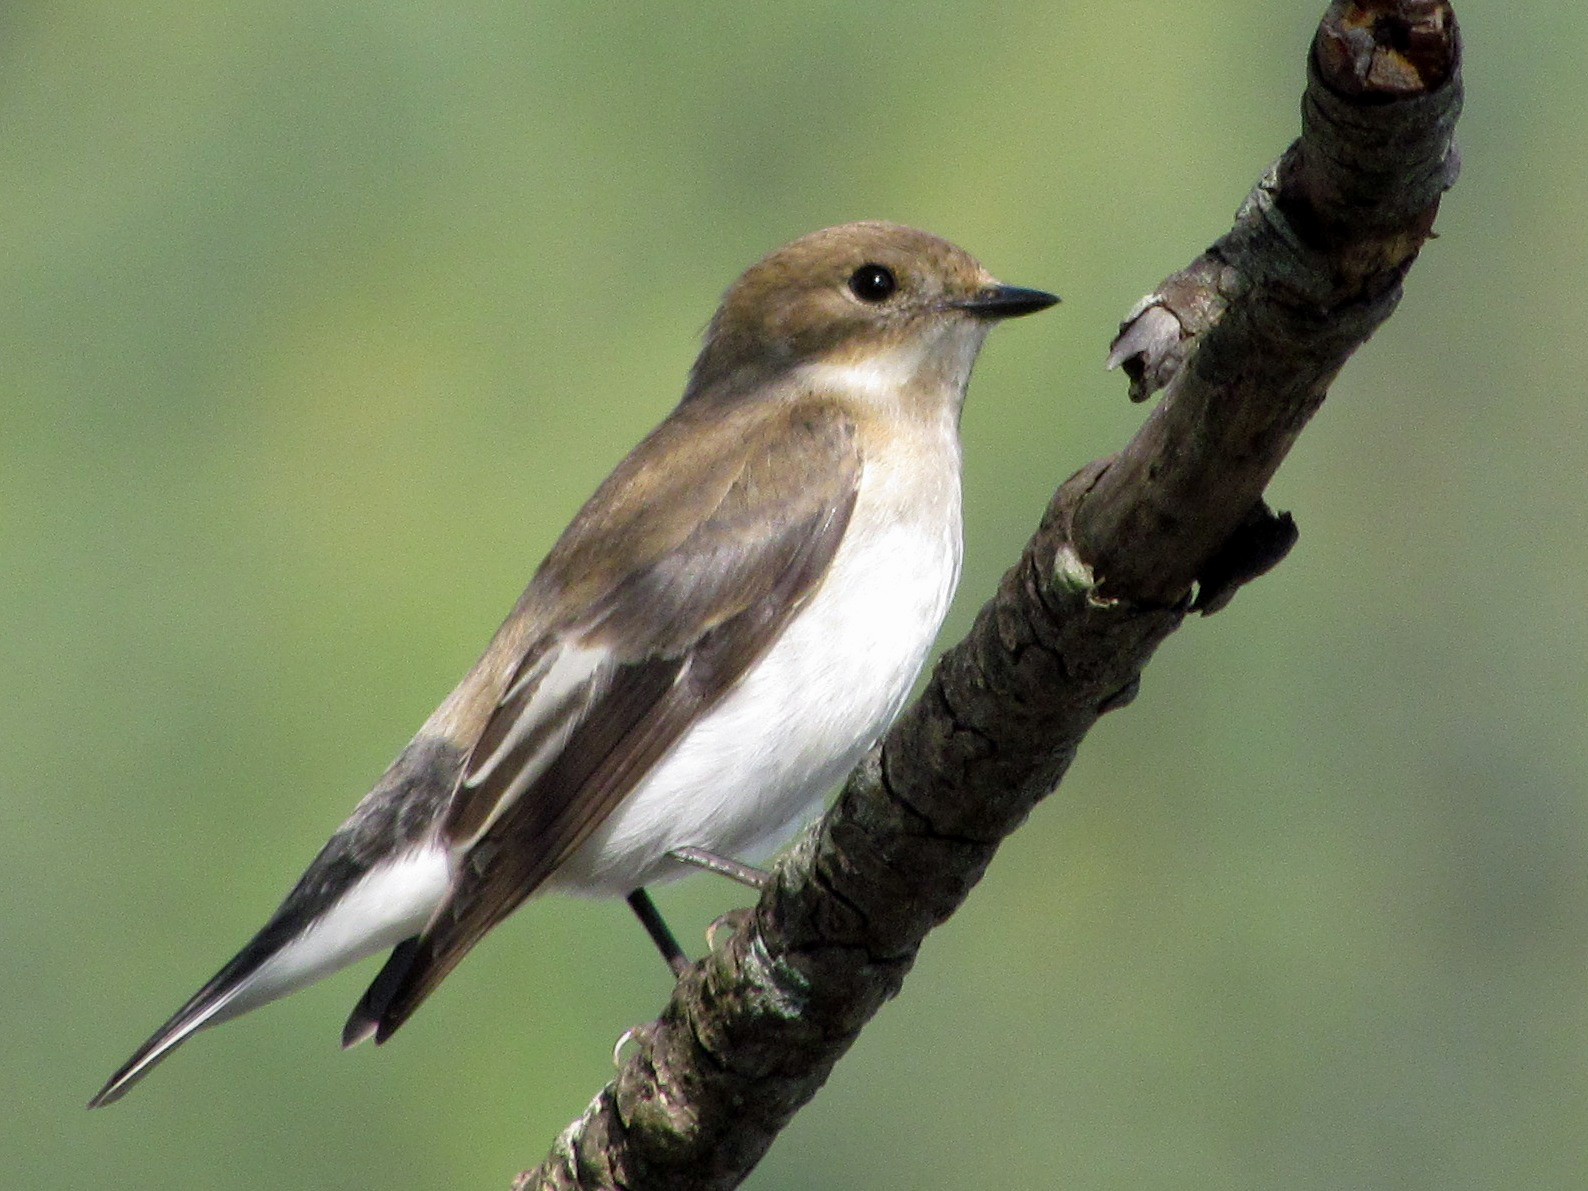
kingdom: Animalia
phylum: Chordata
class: Aves
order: Passeriformes
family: Muscicapidae
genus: Ficedula
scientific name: Ficedula hypoleuca
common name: European pied flycatcher
